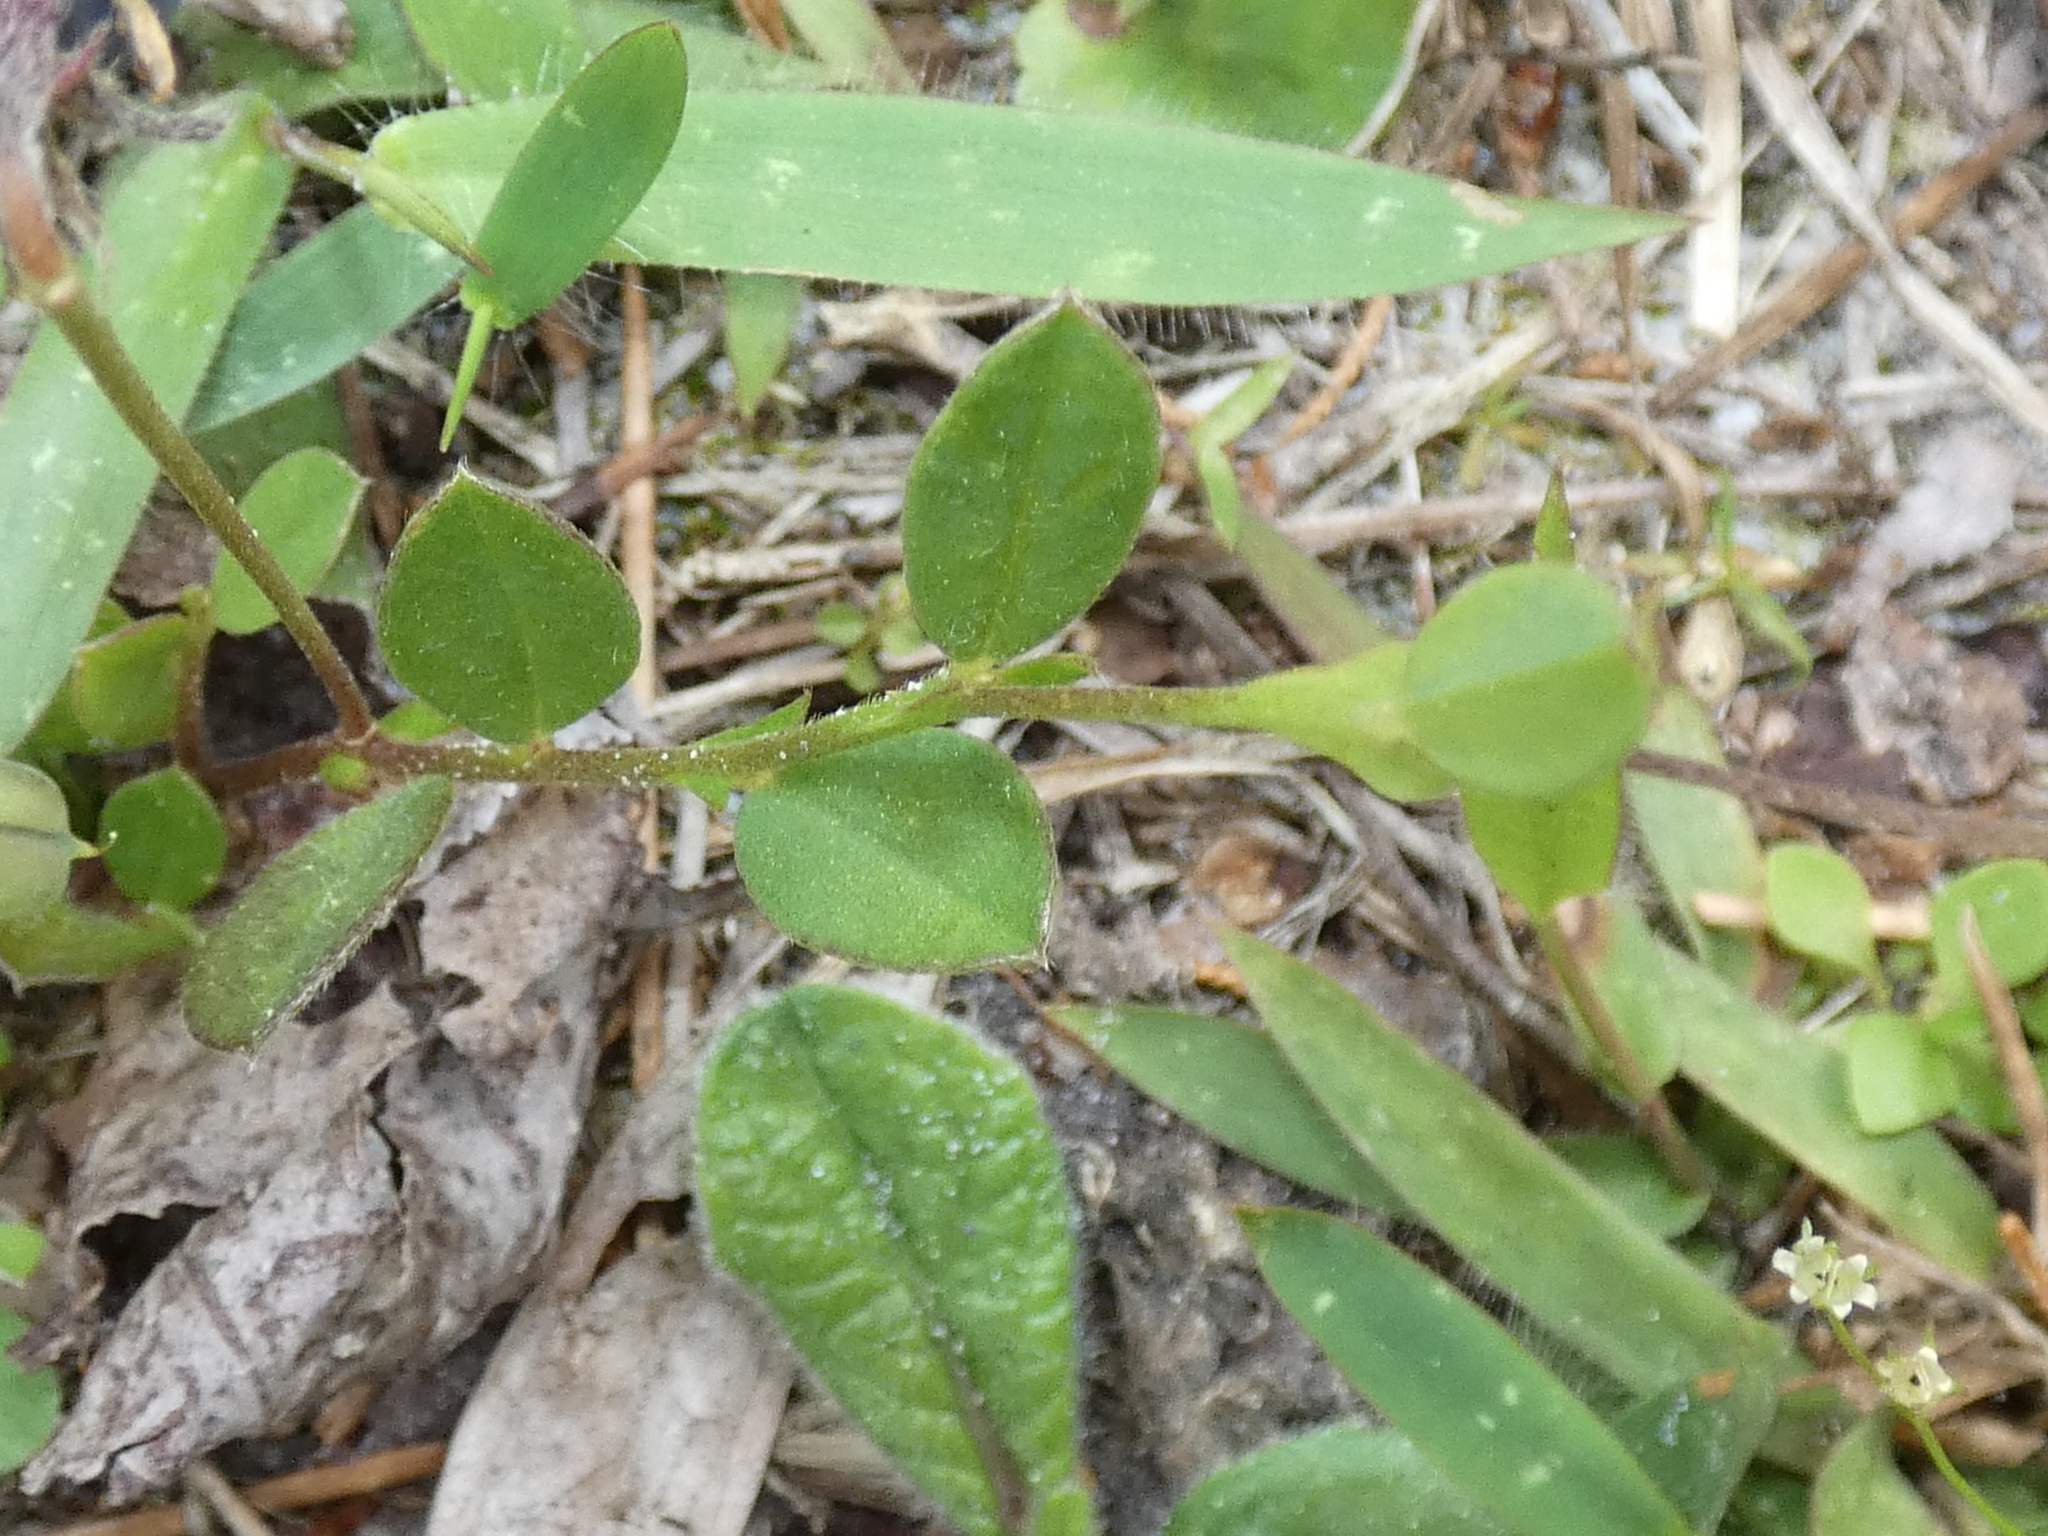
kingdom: Plantae
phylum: Tracheophyta
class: Magnoliopsida
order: Fabales
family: Fabaceae
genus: Crotalaria
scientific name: Crotalaria rotundifolia
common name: Prostrate rattlebox
